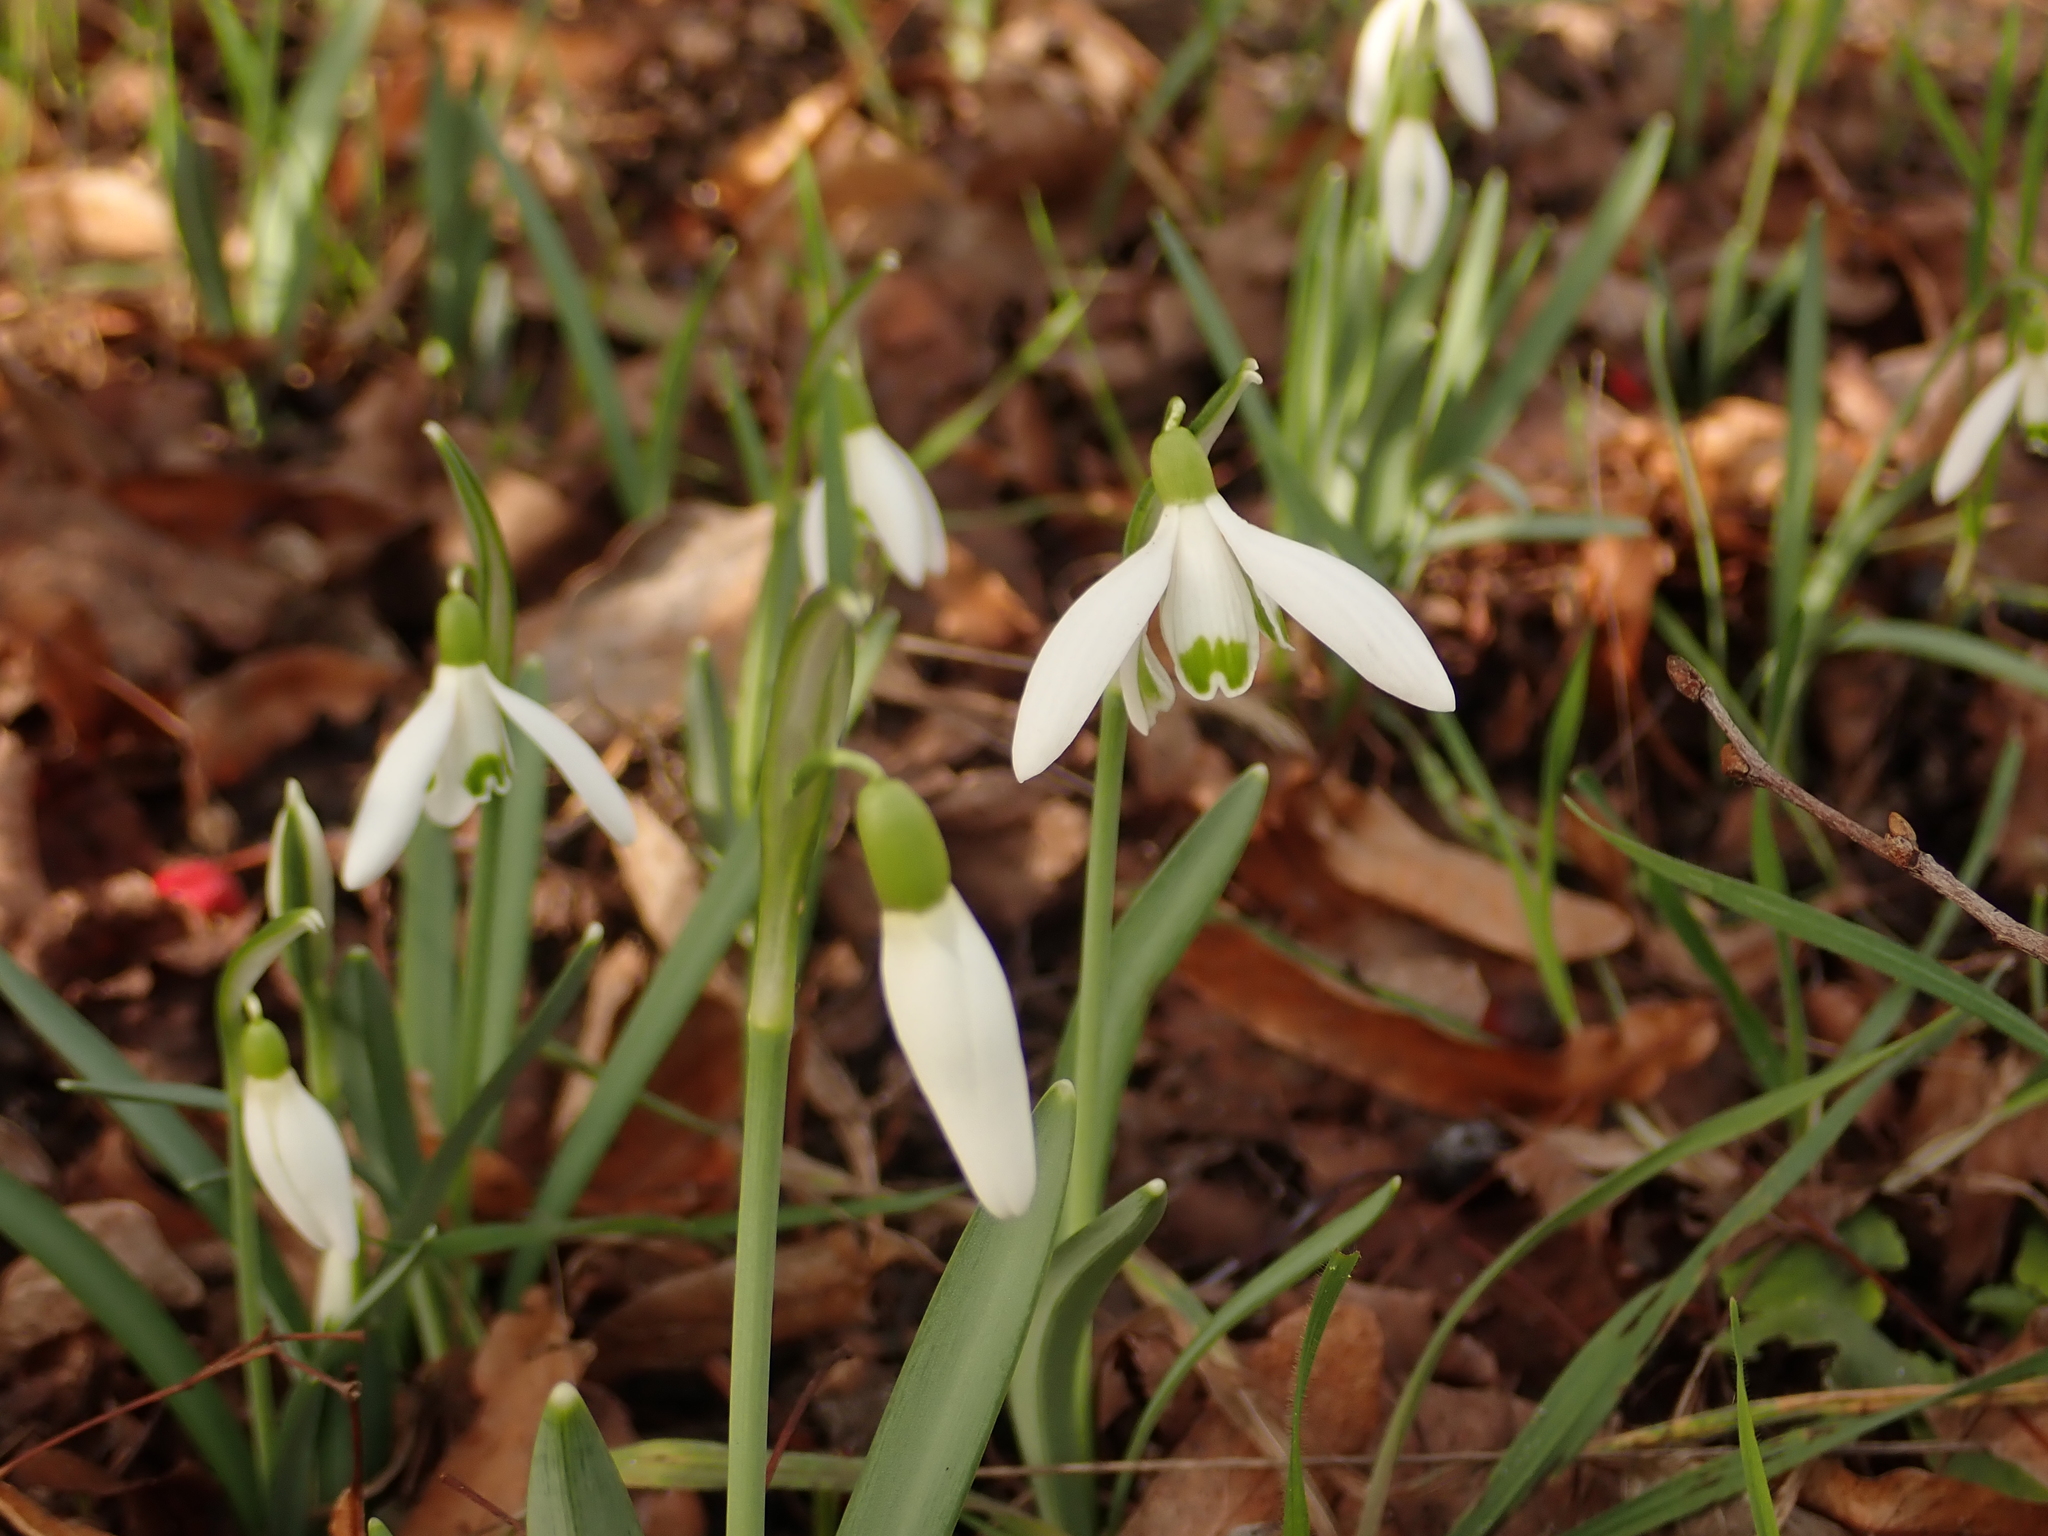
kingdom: Plantae
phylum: Tracheophyta
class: Liliopsida
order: Asparagales
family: Amaryllidaceae
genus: Galanthus
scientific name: Galanthus nivalis
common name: Snowdrop
